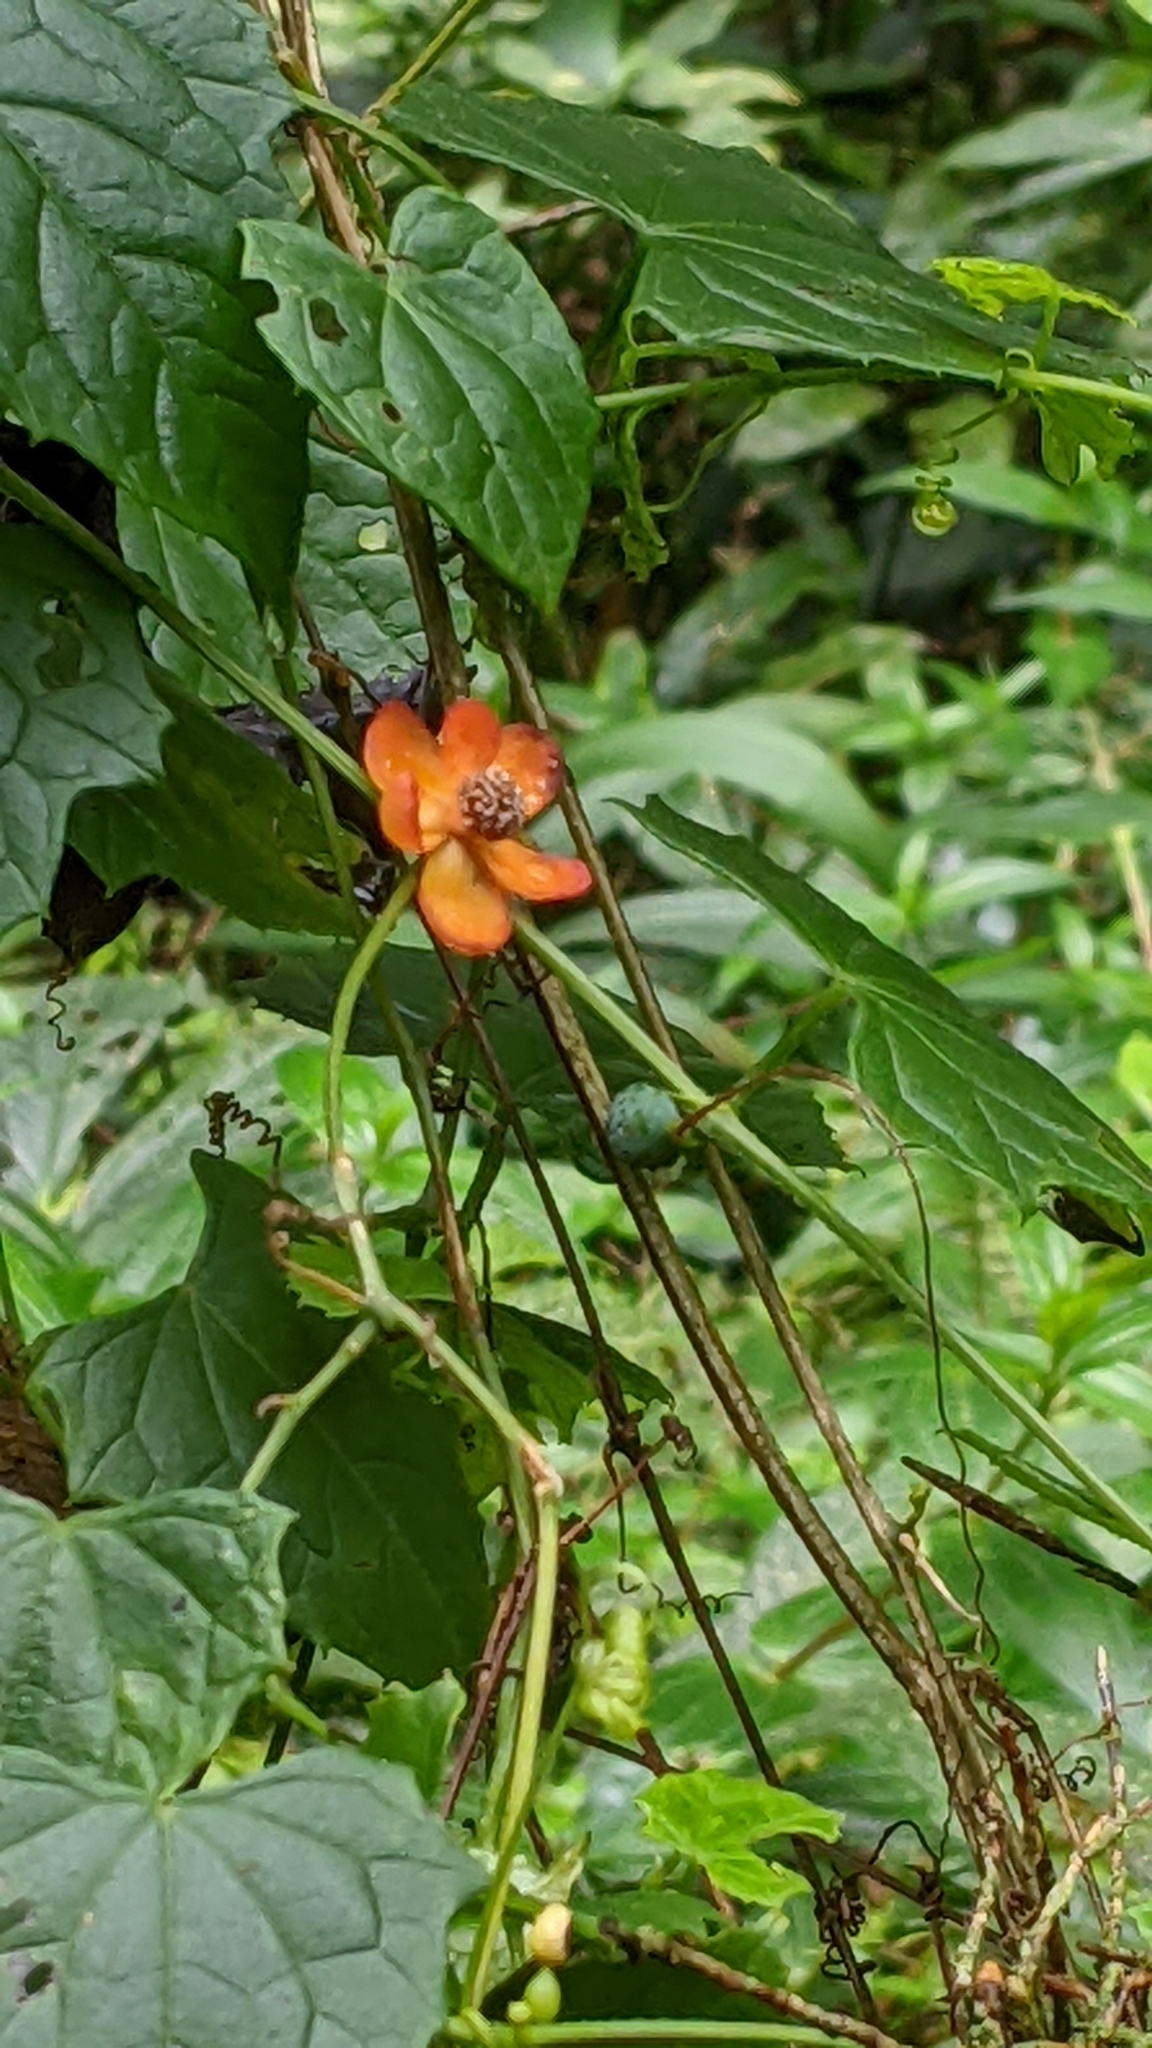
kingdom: Plantae
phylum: Tracheophyta
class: Magnoliopsida
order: Austrobaileyales
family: Schisandraceae
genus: Schisandra
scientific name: Schisandra arisanensis
